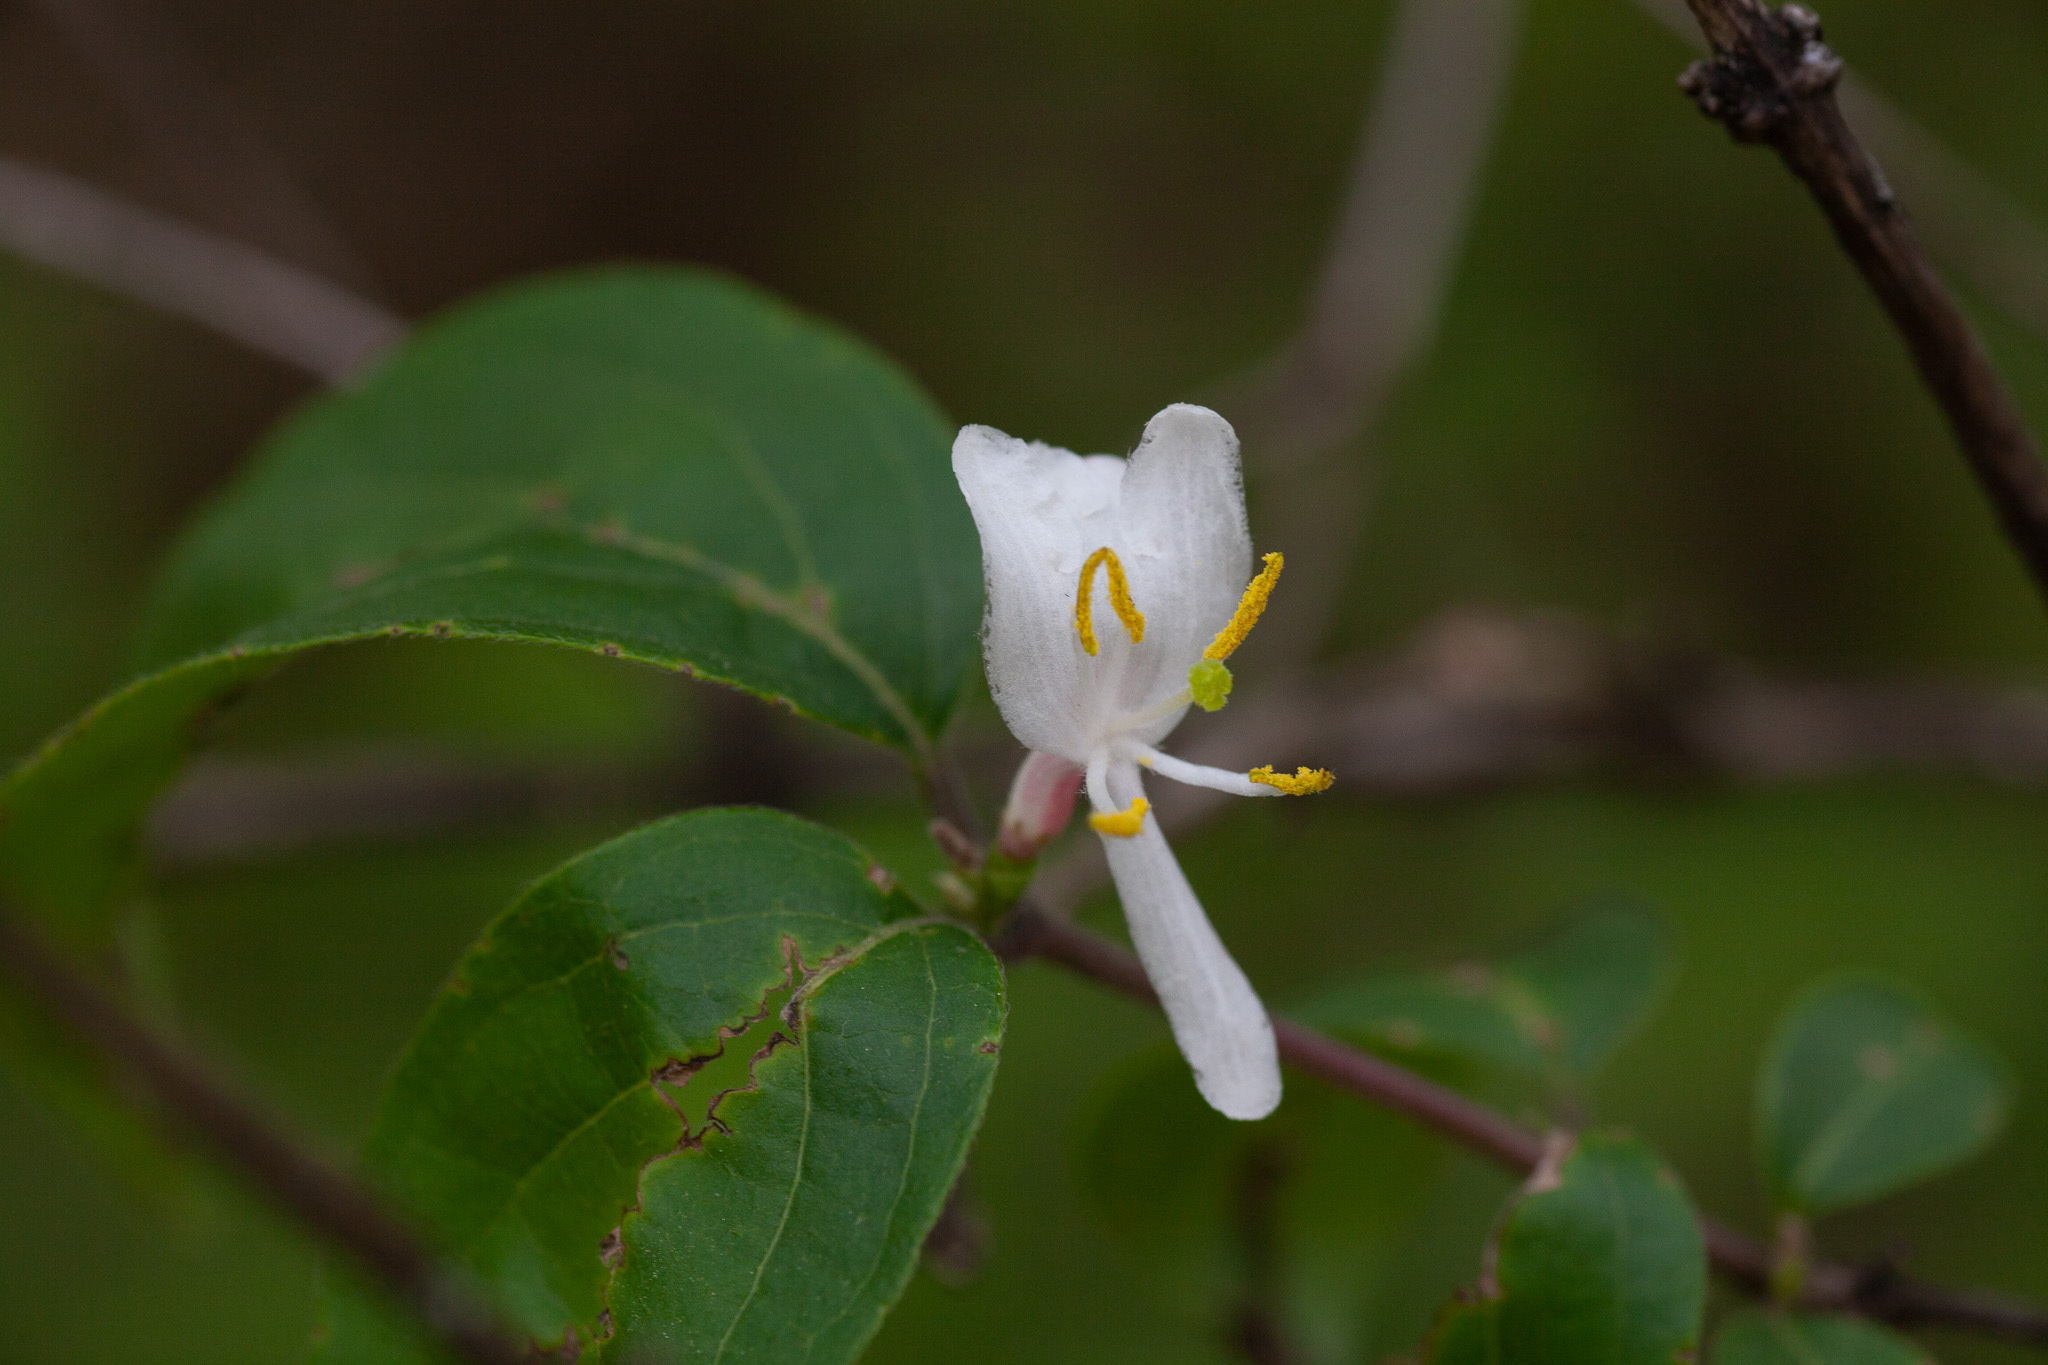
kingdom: Plantae
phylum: Tracheophyta
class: Magnoliopsida
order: Dipsacales
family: Caprifoliaceae
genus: Lonicera
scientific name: Lonicera maackii
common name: Amur honeysuckle
